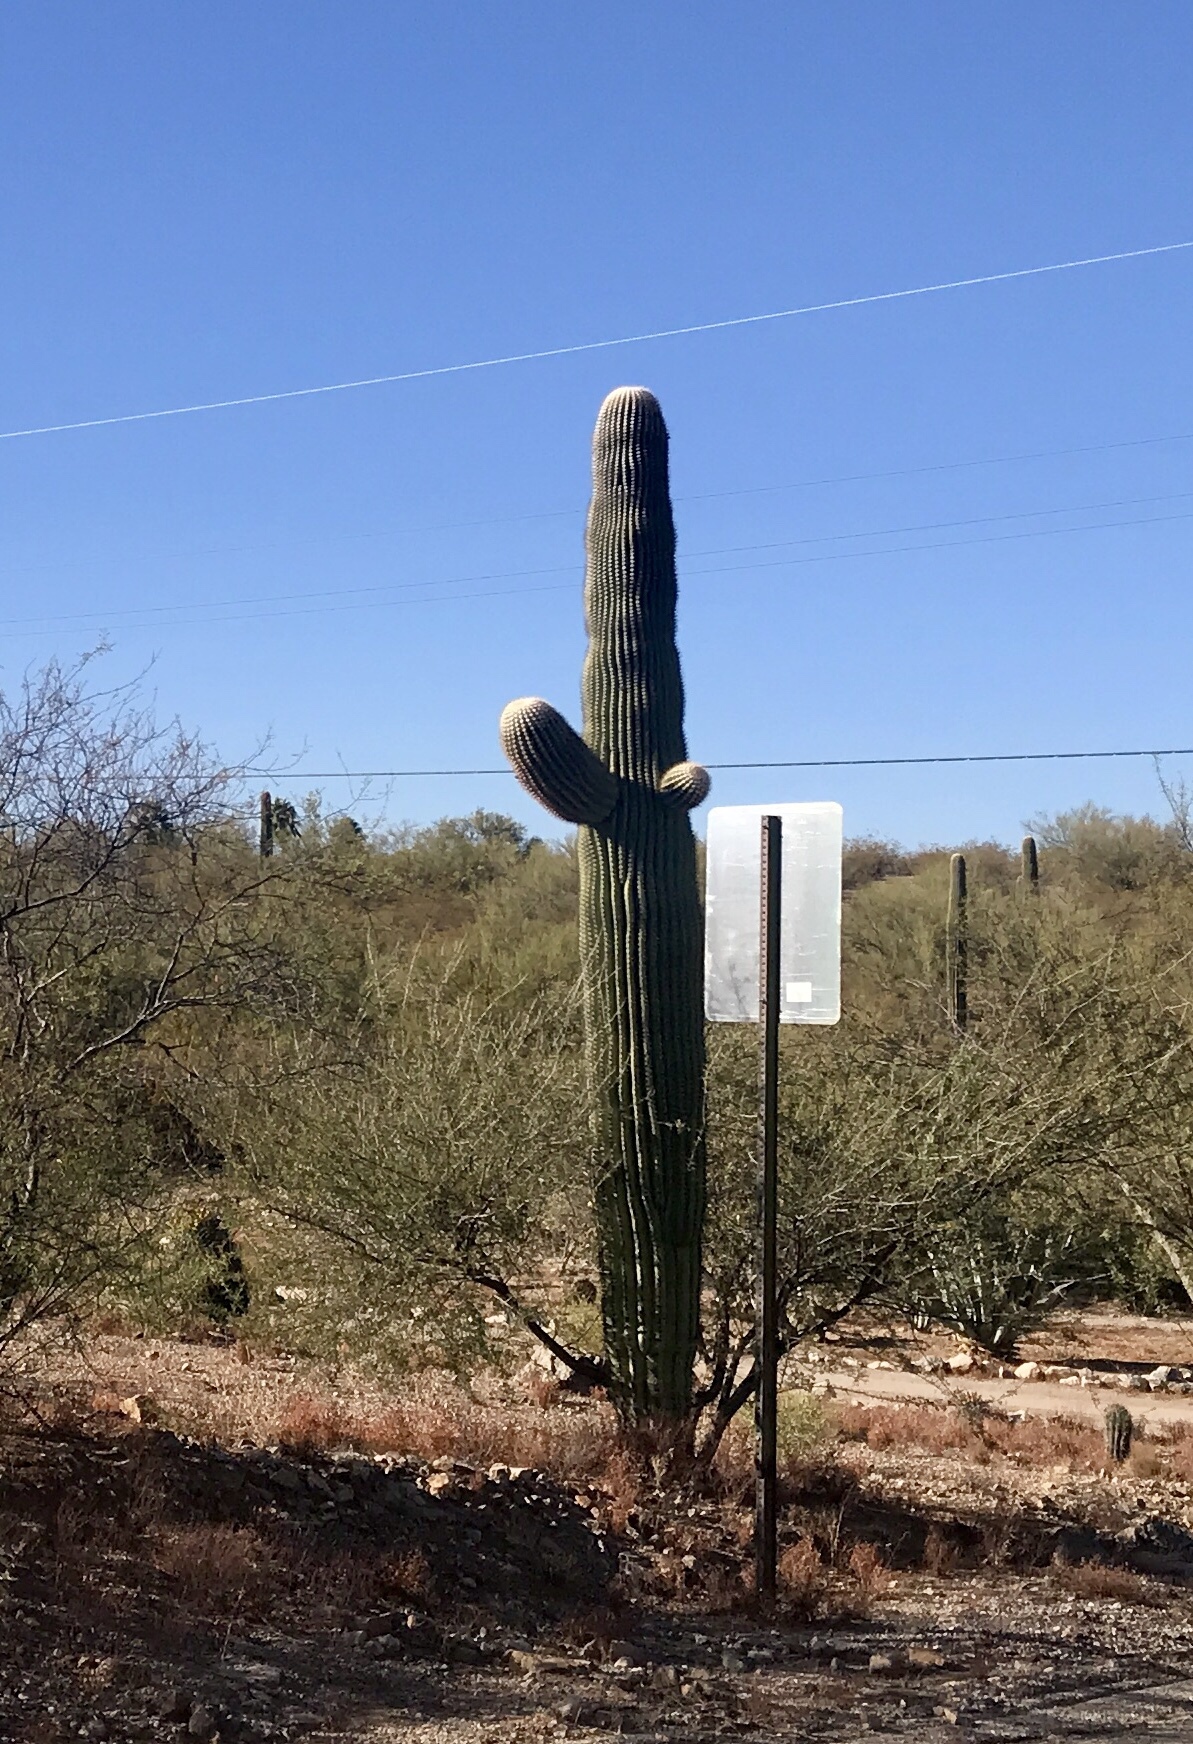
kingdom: Plantae
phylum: Tracheophyta
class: Magnoliopsida
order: Caryophyllales
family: Cactaceae
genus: Carnegiea
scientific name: Carnegiea gigantea
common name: Saguaro
